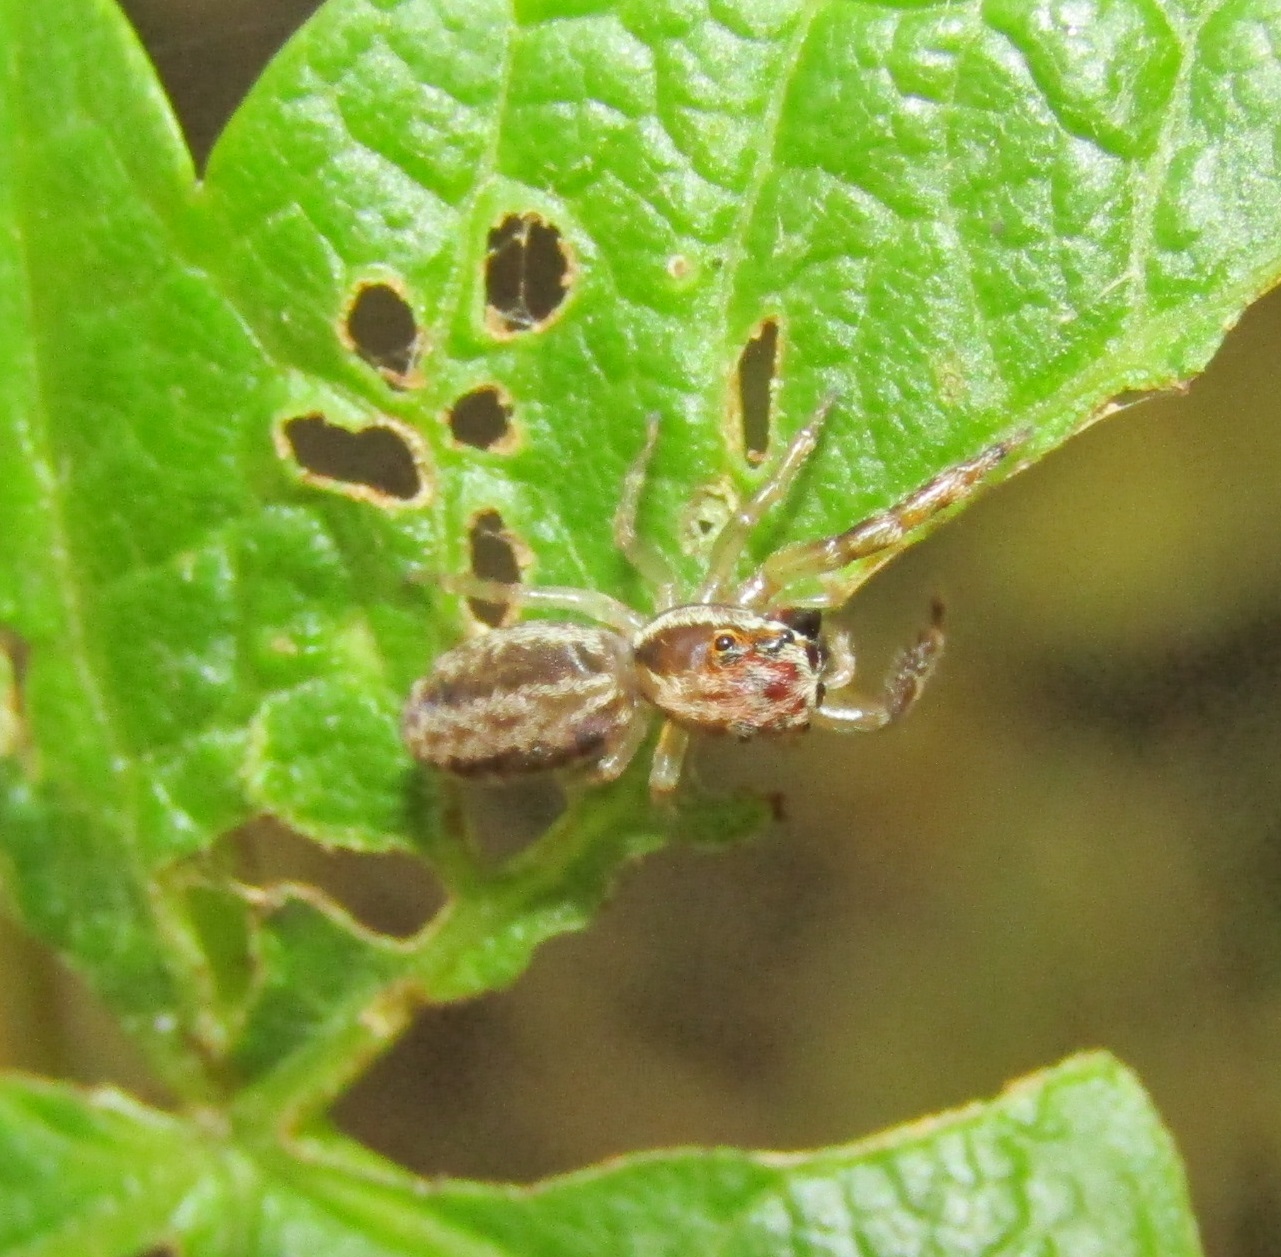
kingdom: Animalia
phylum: Arthropoda
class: Arachnida
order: Araneae
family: Salticidae
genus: Trite
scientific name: Trite mustilina
